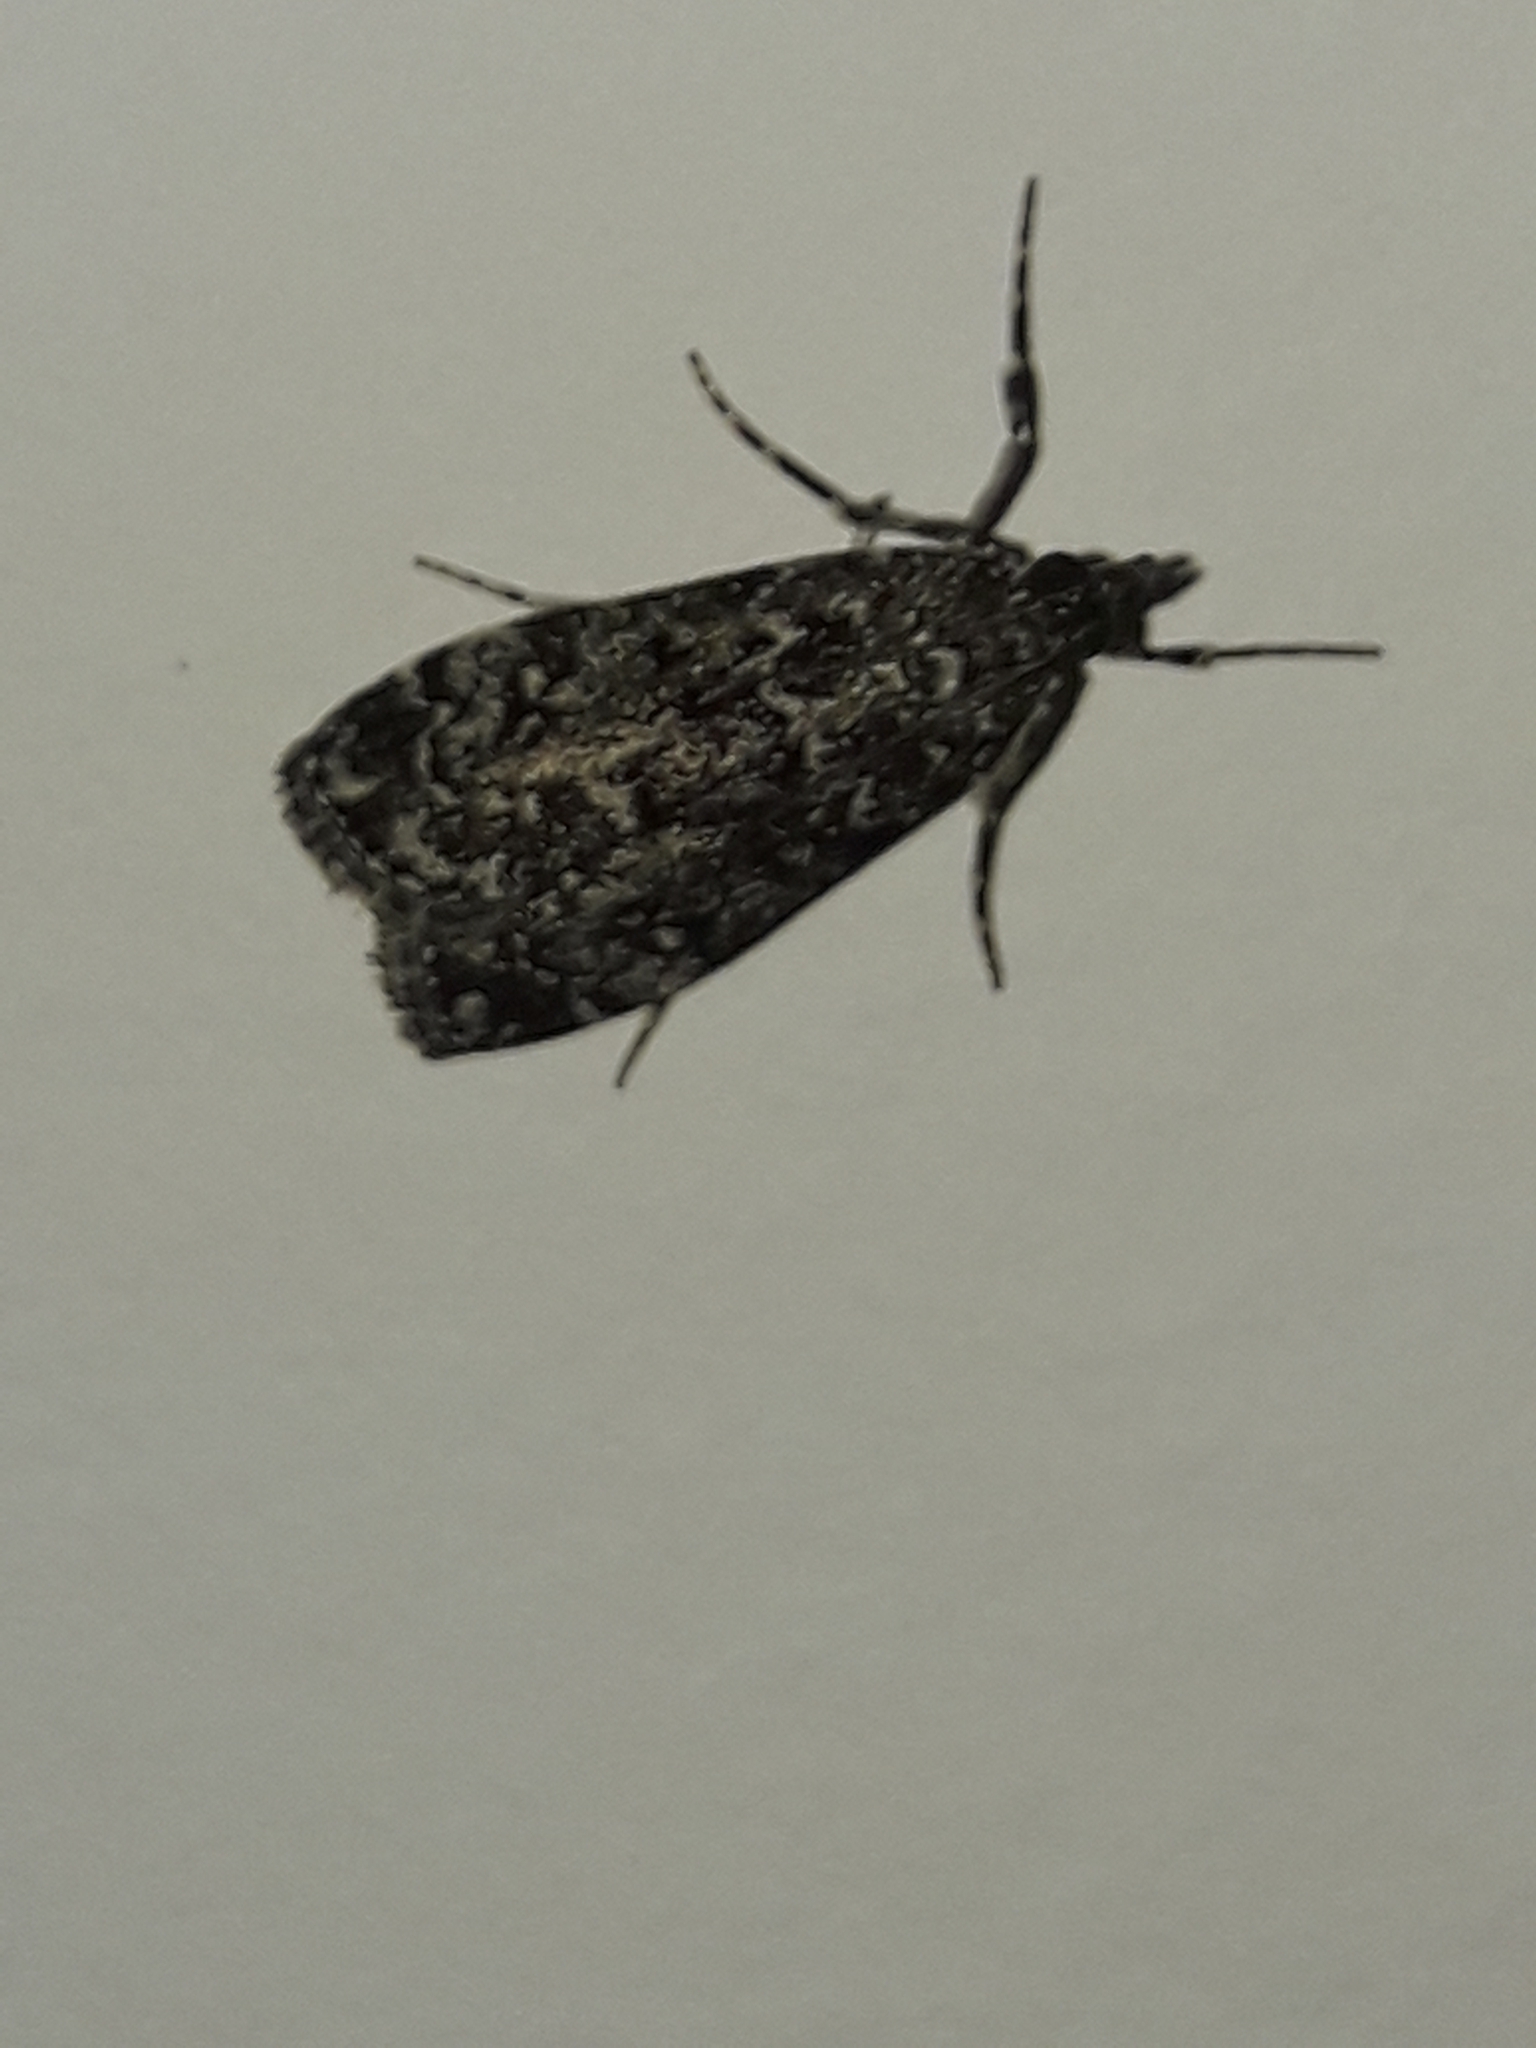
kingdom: Animalia
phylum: Arthropoda
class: Insecta
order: Lepidoptera
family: Crambidae
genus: Eudonia
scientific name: Eudonia philerga
